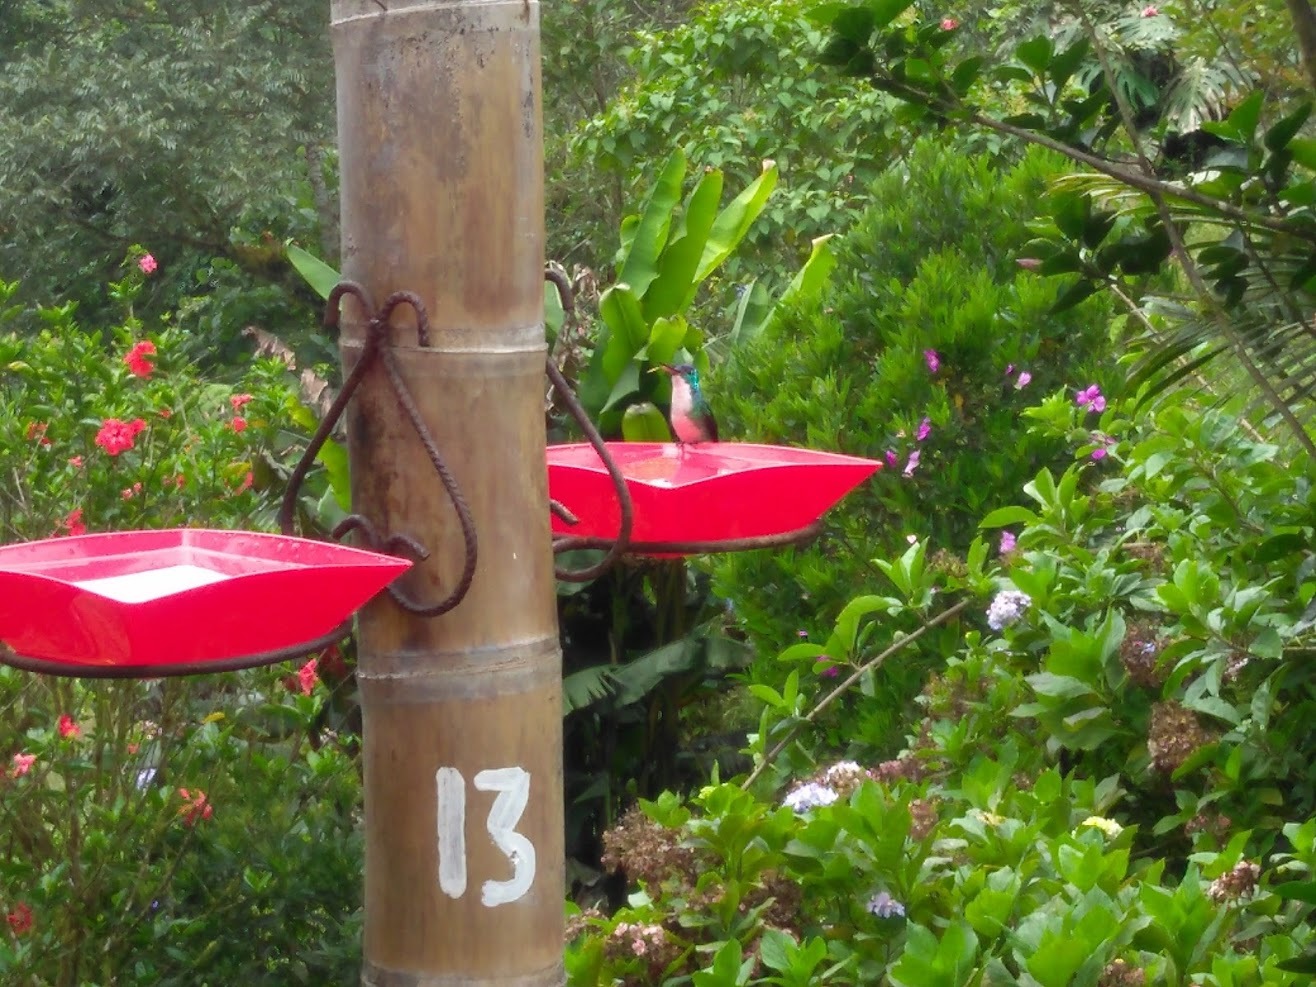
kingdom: Animalia
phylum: Chordata
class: Aves
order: Apodiformes
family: Trochilidae
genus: Uranomitra
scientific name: Uranomitra franciae
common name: Andean emerald
